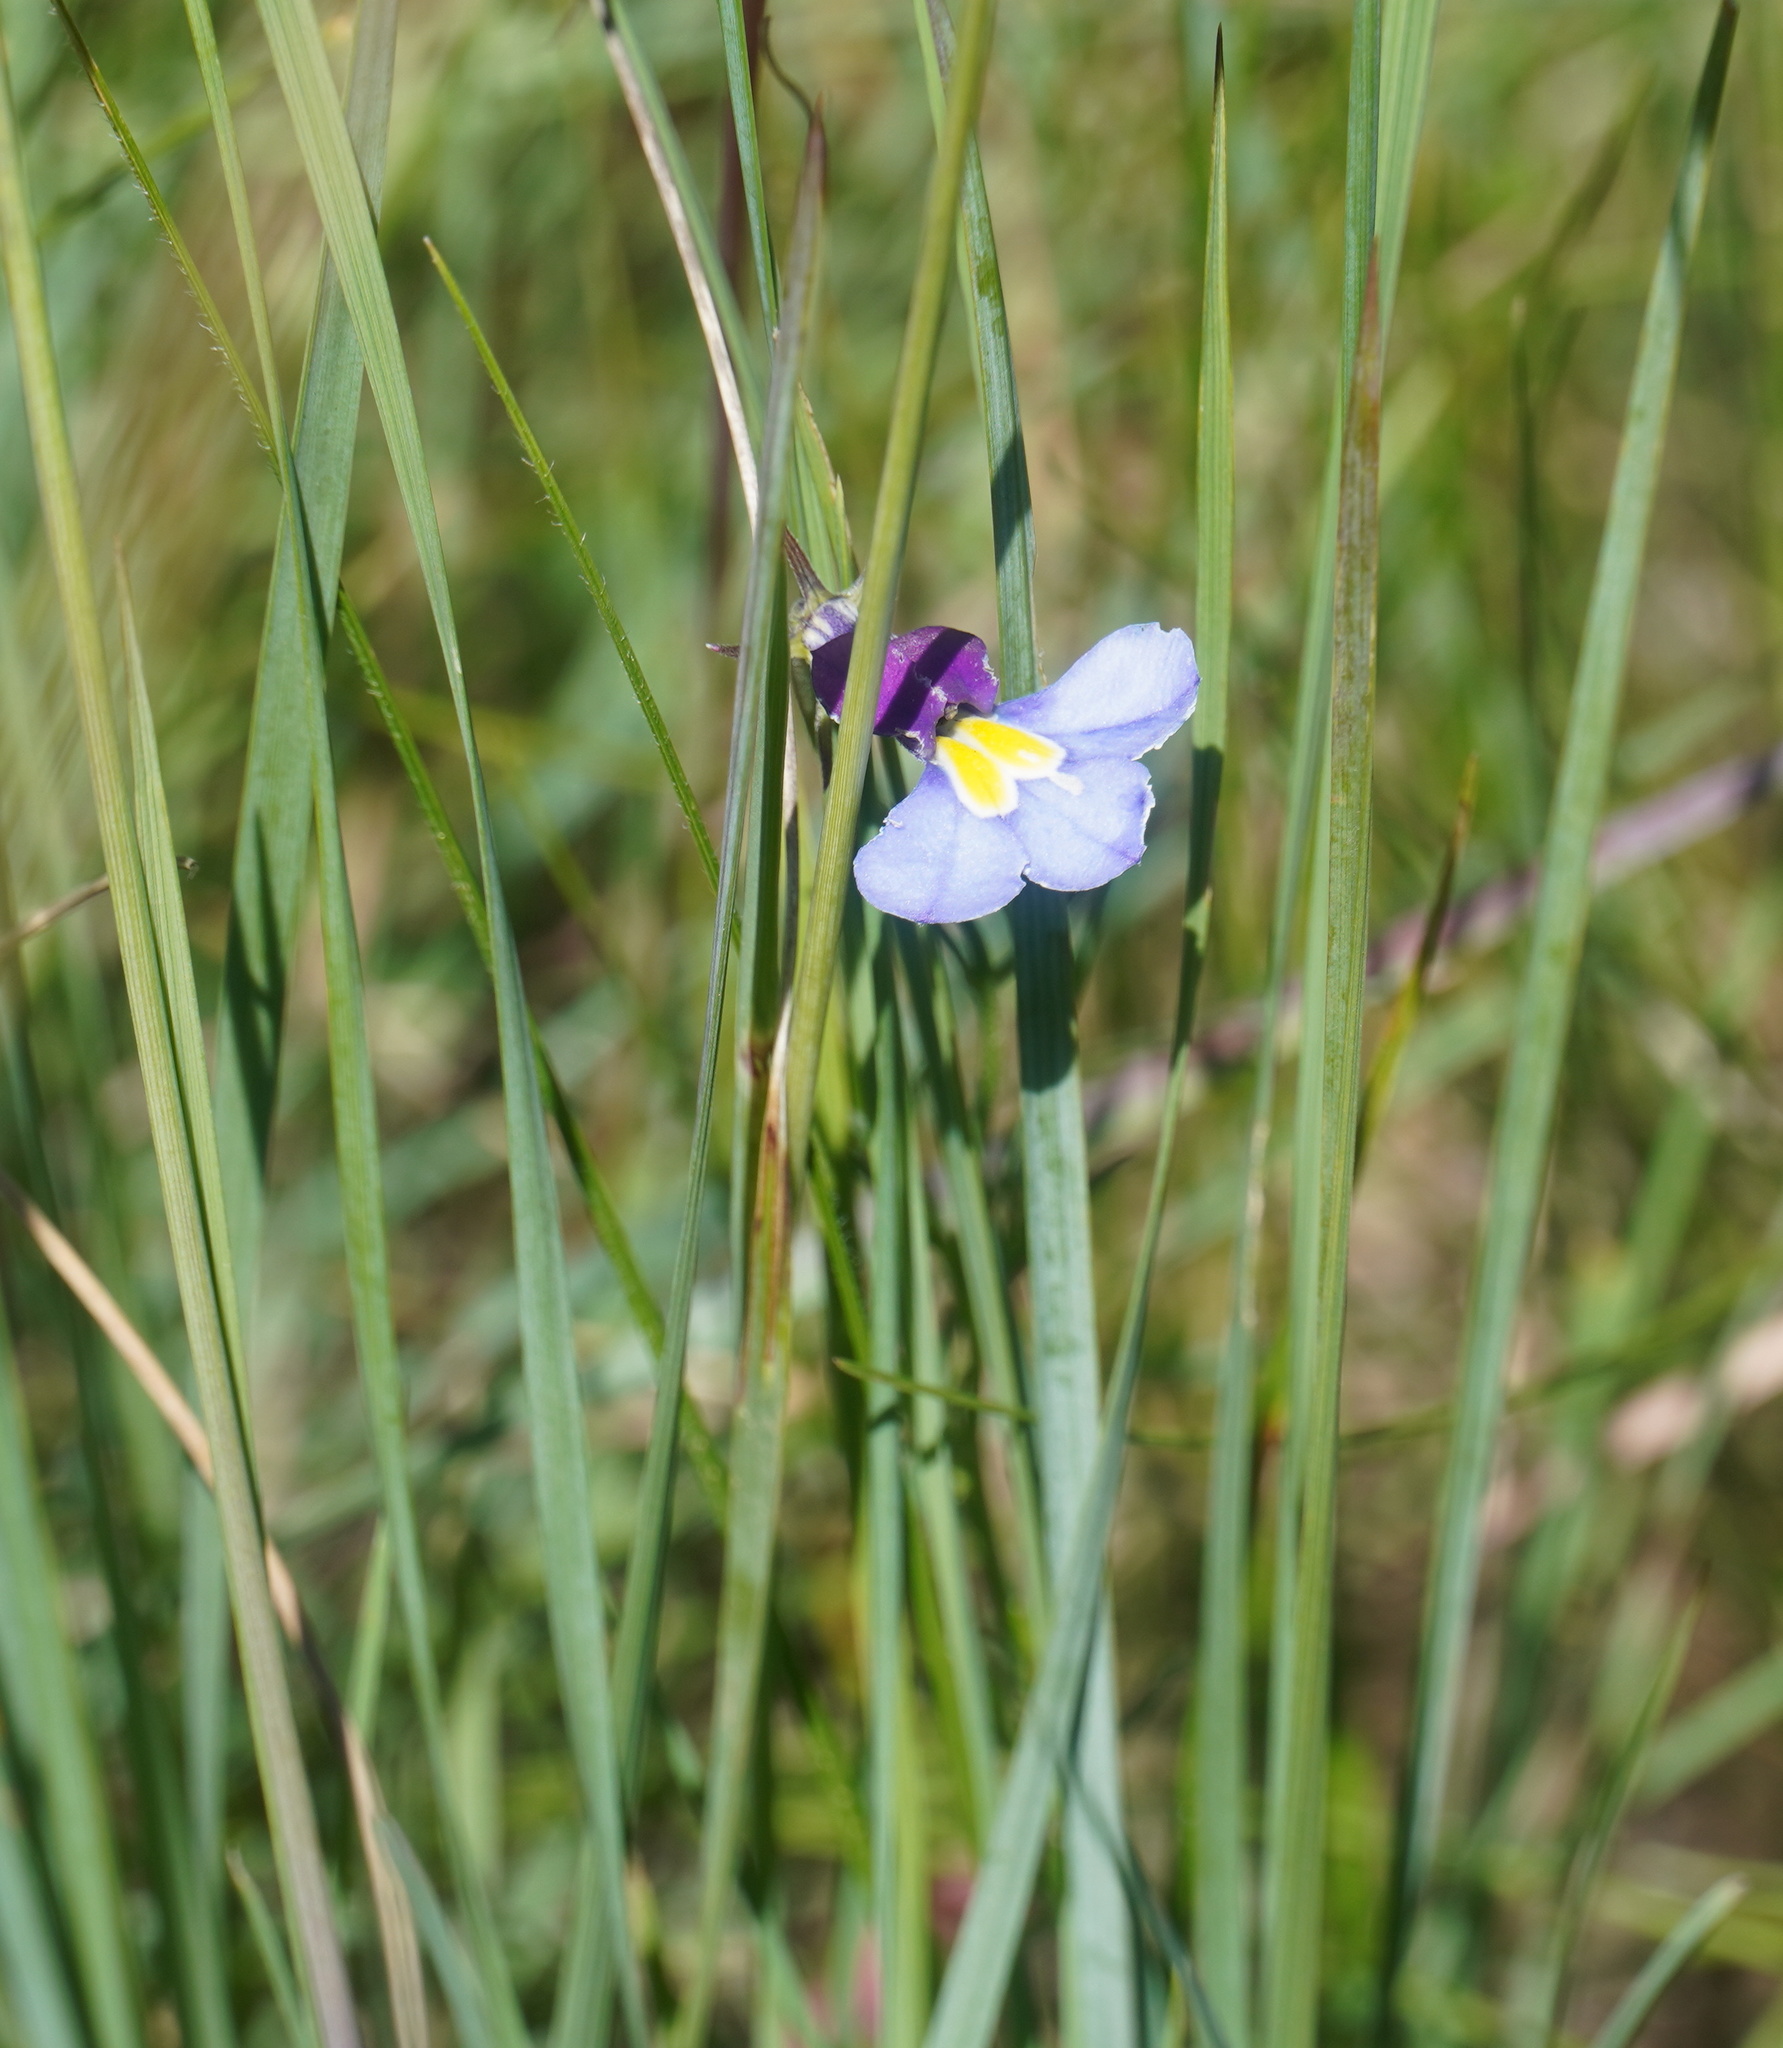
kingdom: Plantae
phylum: Tracheophyta
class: Magnoliopsida
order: Asterales
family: Campanulaceae
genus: Monopsis
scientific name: Monopsis decipiens
